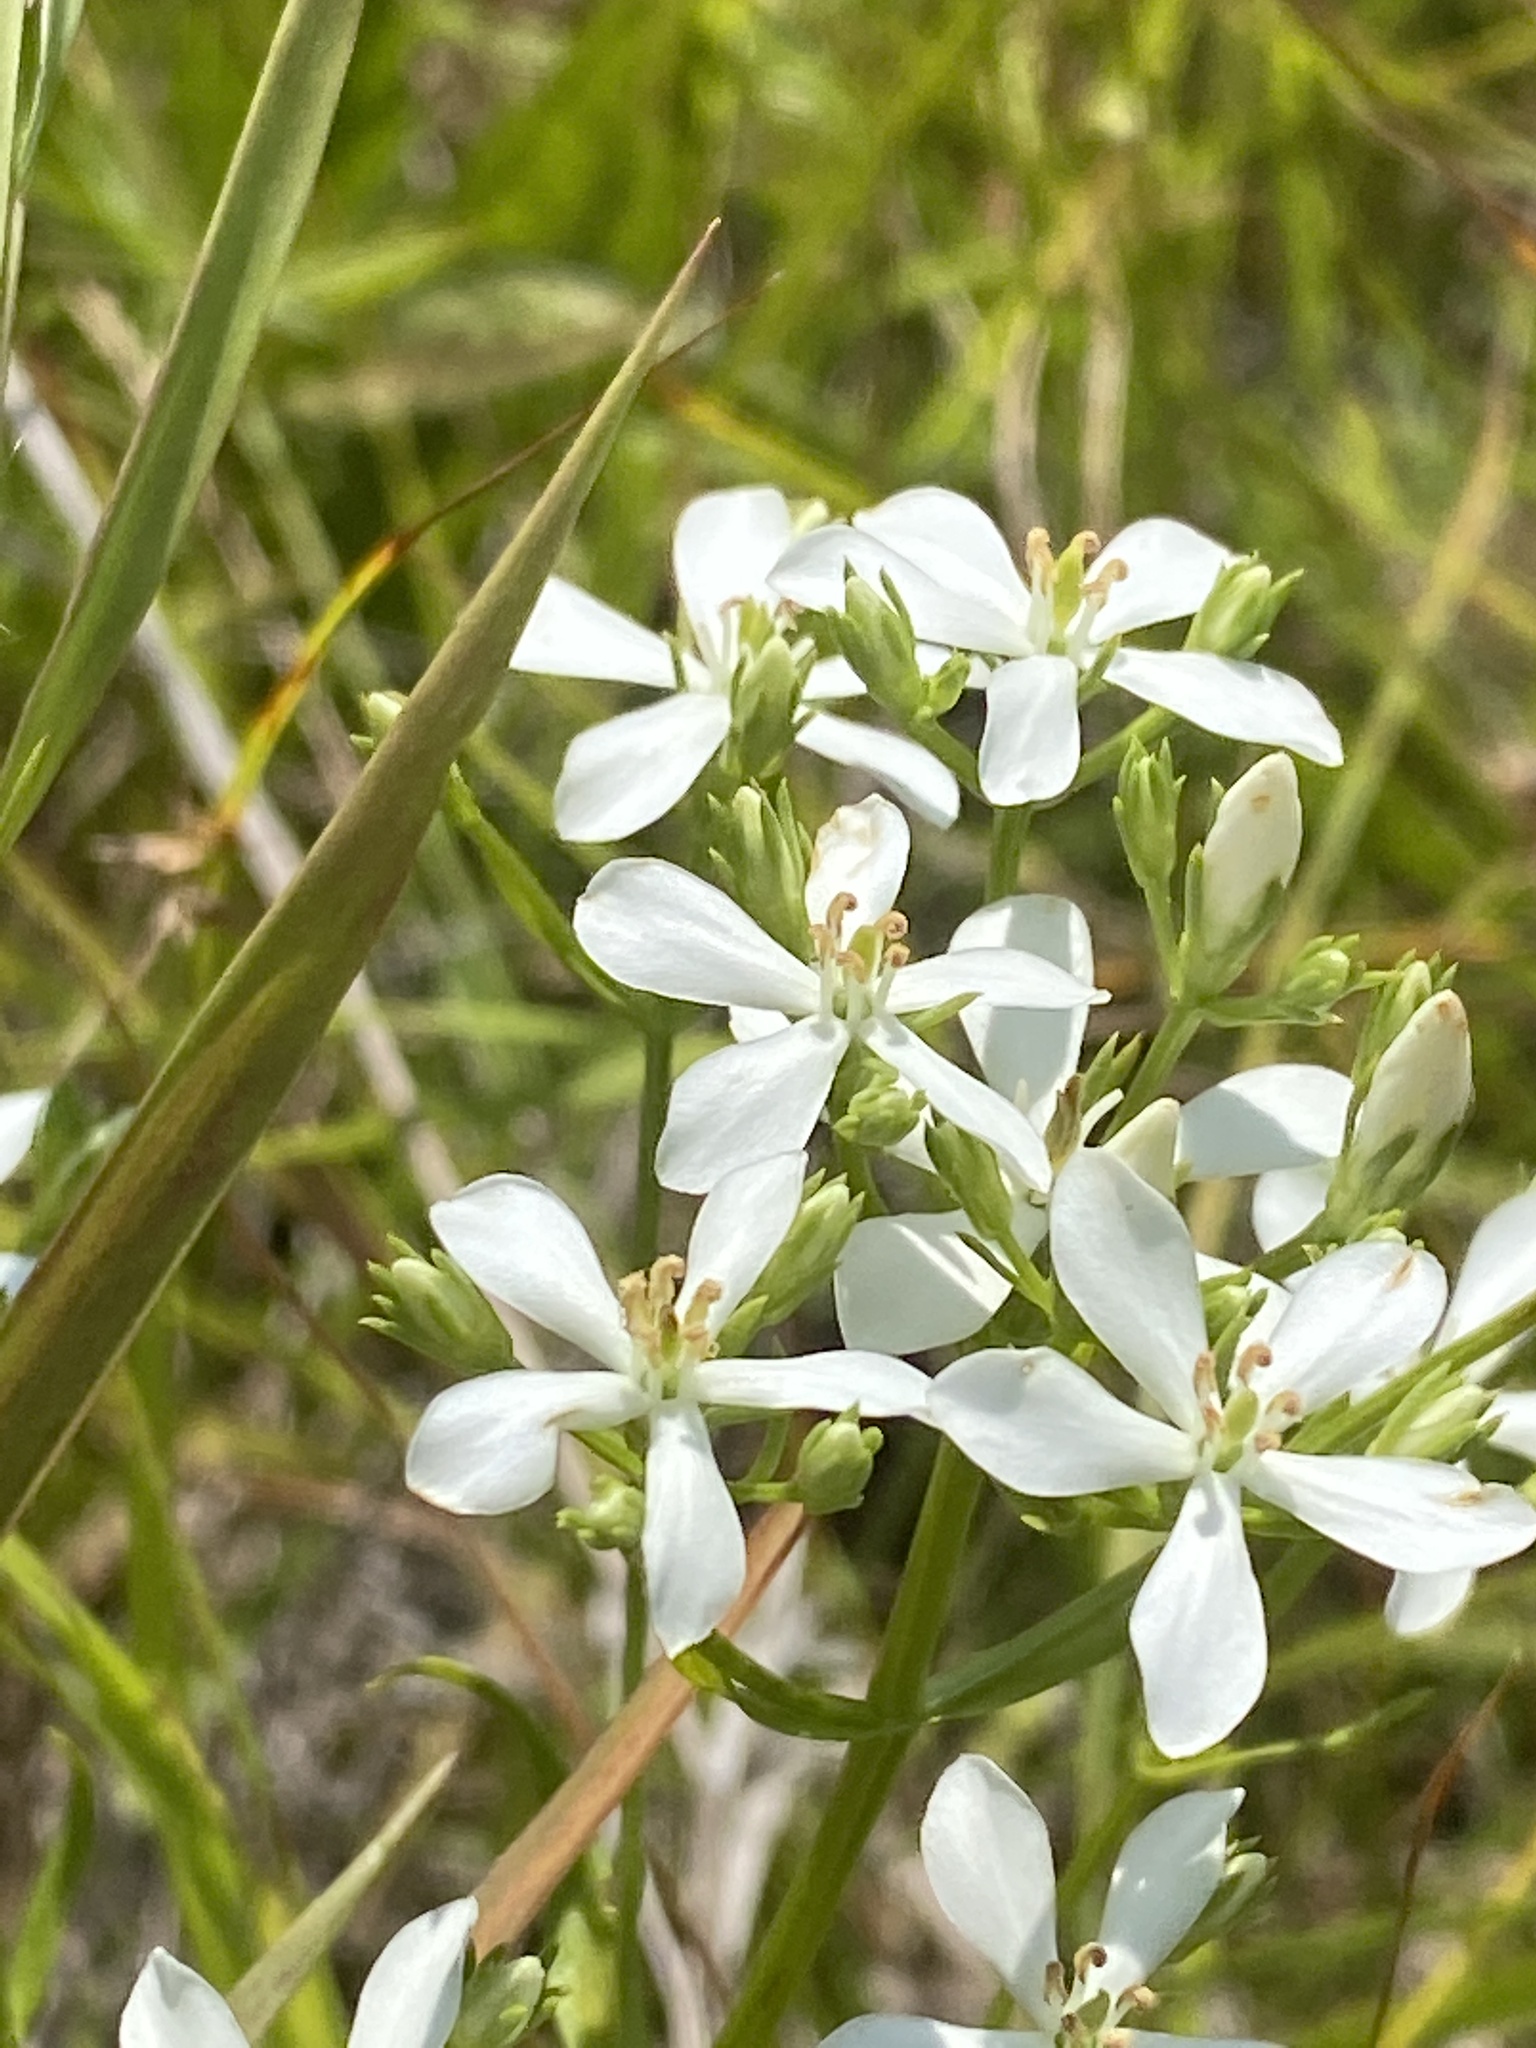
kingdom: Plantae
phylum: Tracheophyta
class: Magnoliopsida
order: Gentianales
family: Gentianaceae
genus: Sabatia
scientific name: Sabatia quadrangula
